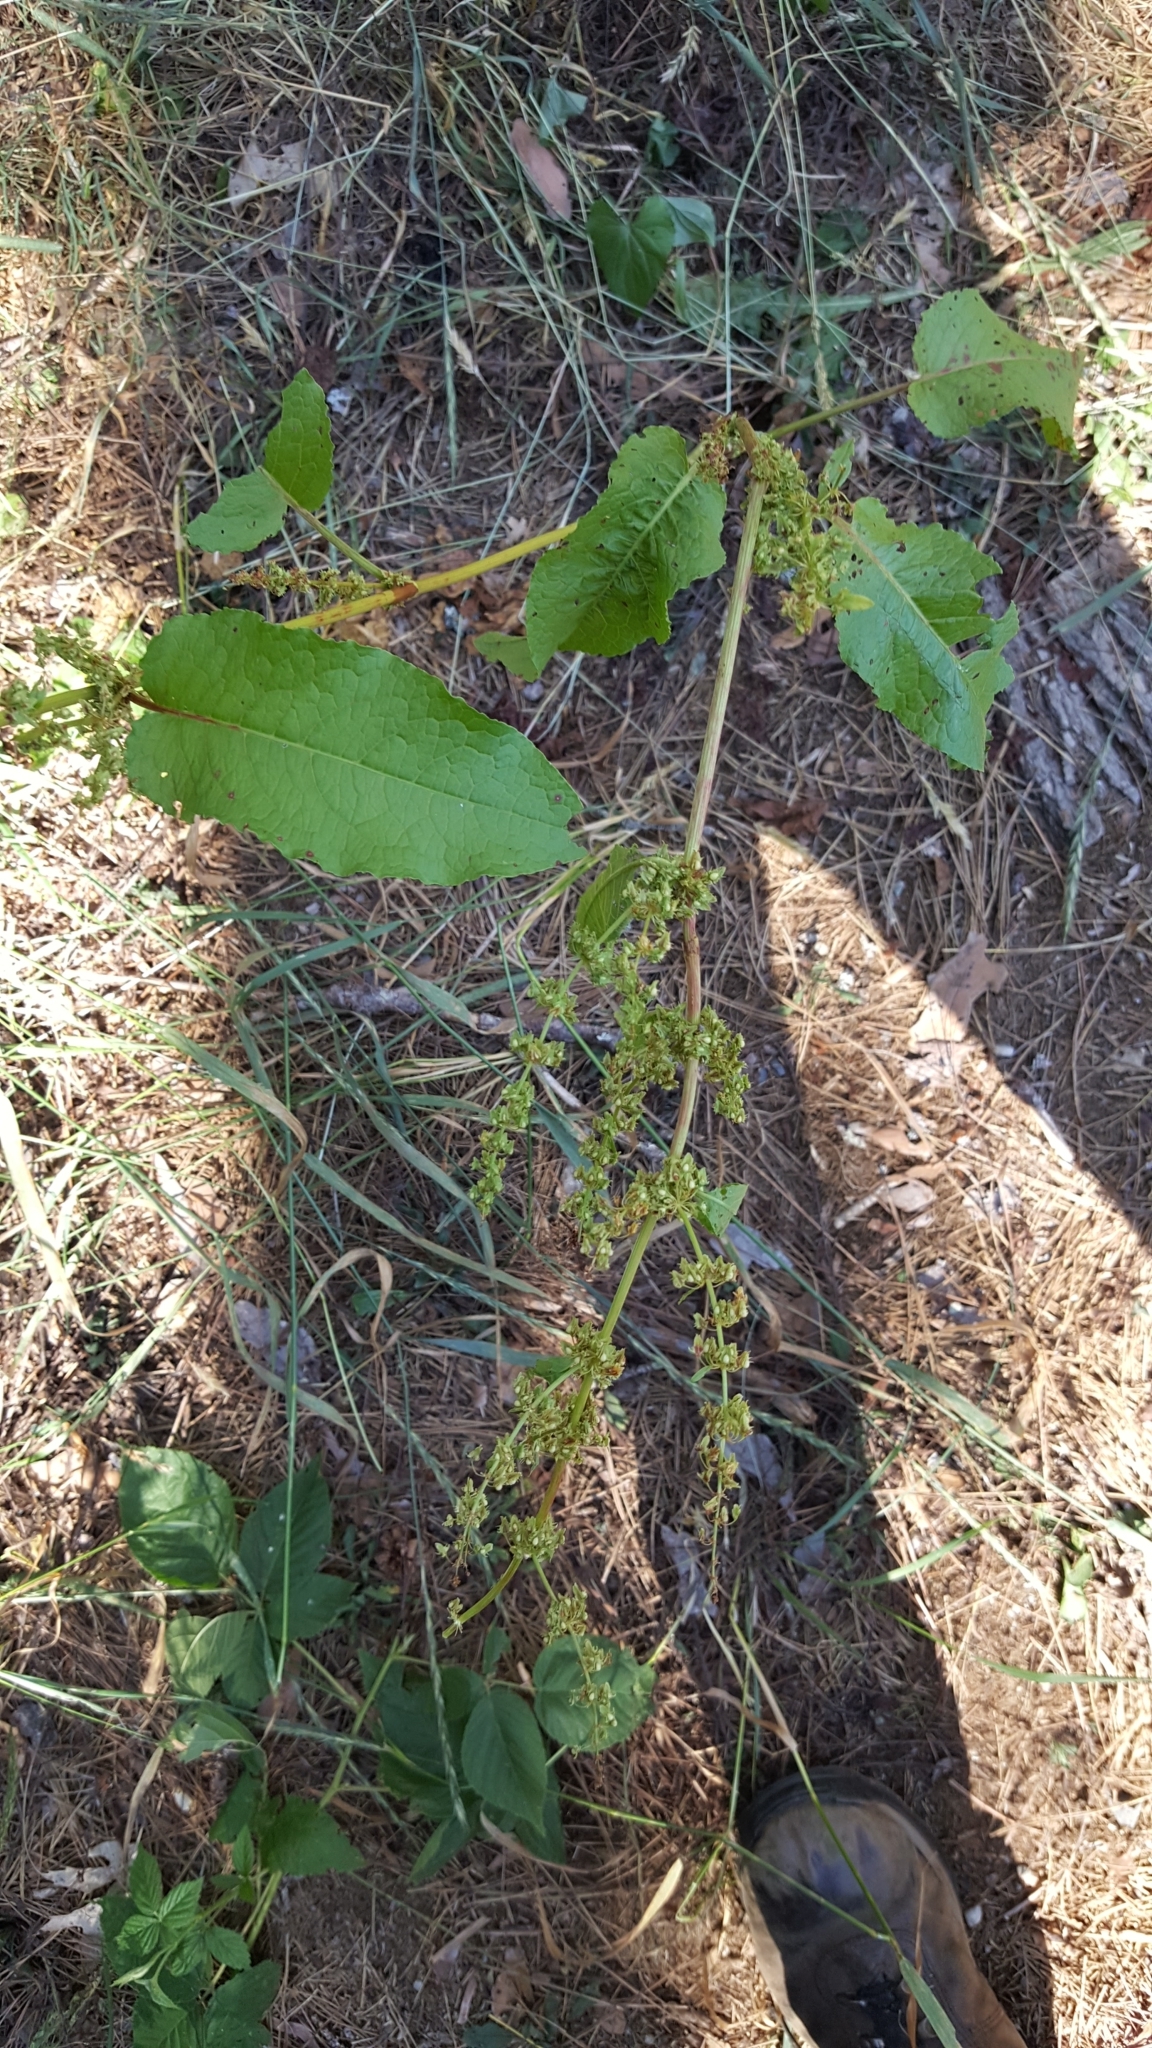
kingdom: Plantae
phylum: Tracheophyta
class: Magnoliopsida
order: Caryophyllales
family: Polygonaceae
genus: Rumex
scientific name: Rumex obtusifolius
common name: Bitter dock
